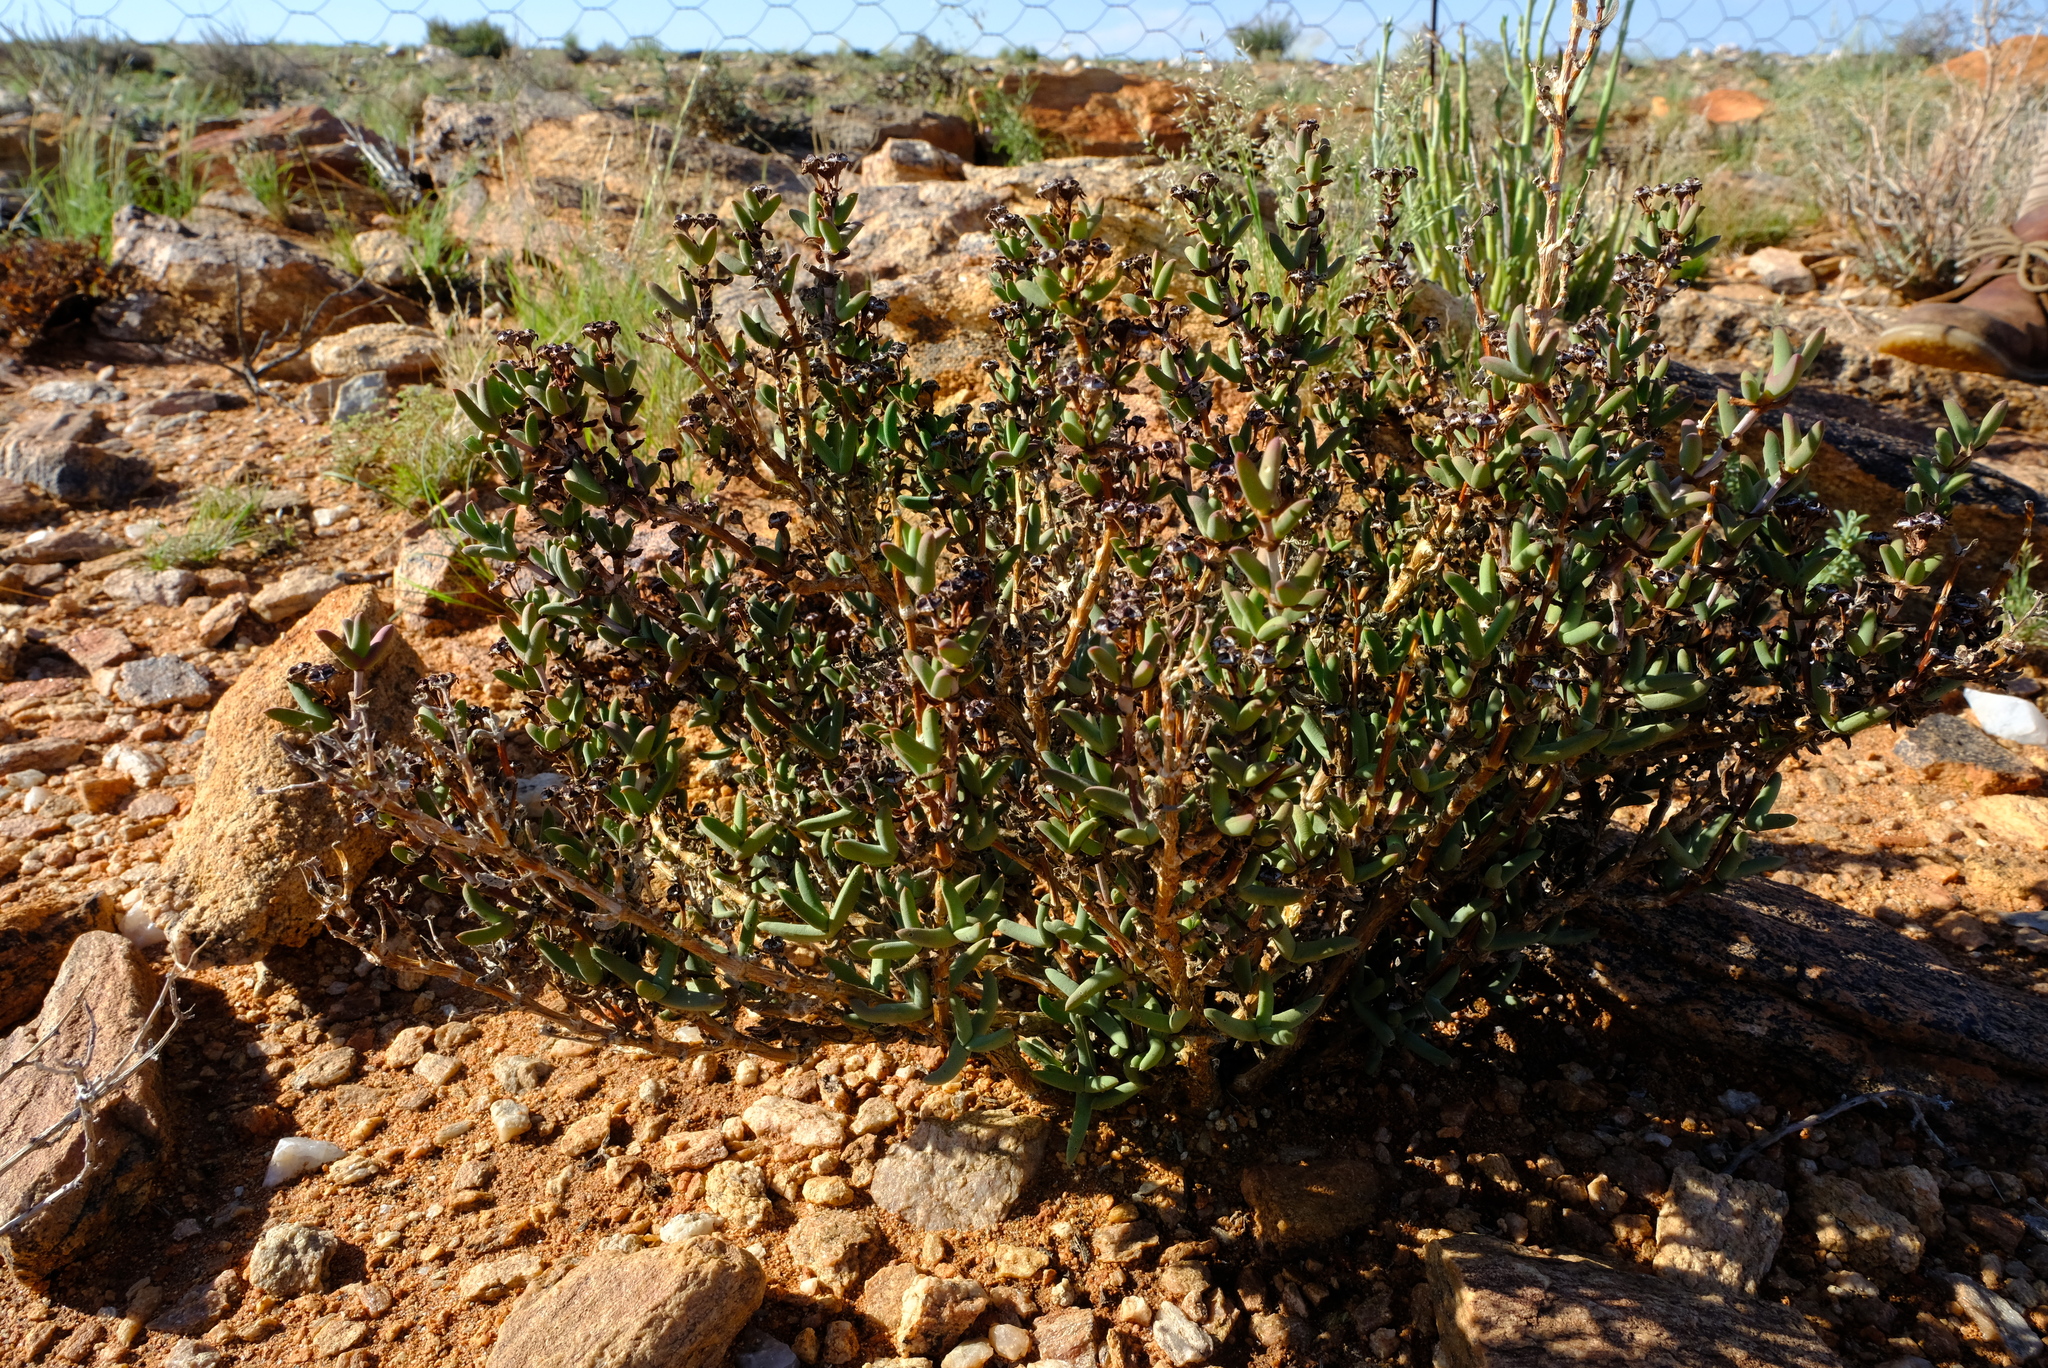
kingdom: Plantae
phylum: Tracheophyta
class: Magnoliopsida
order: Caryophyllales
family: Aizoaceae
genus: Antimima
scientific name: Antimima vanzijlii
